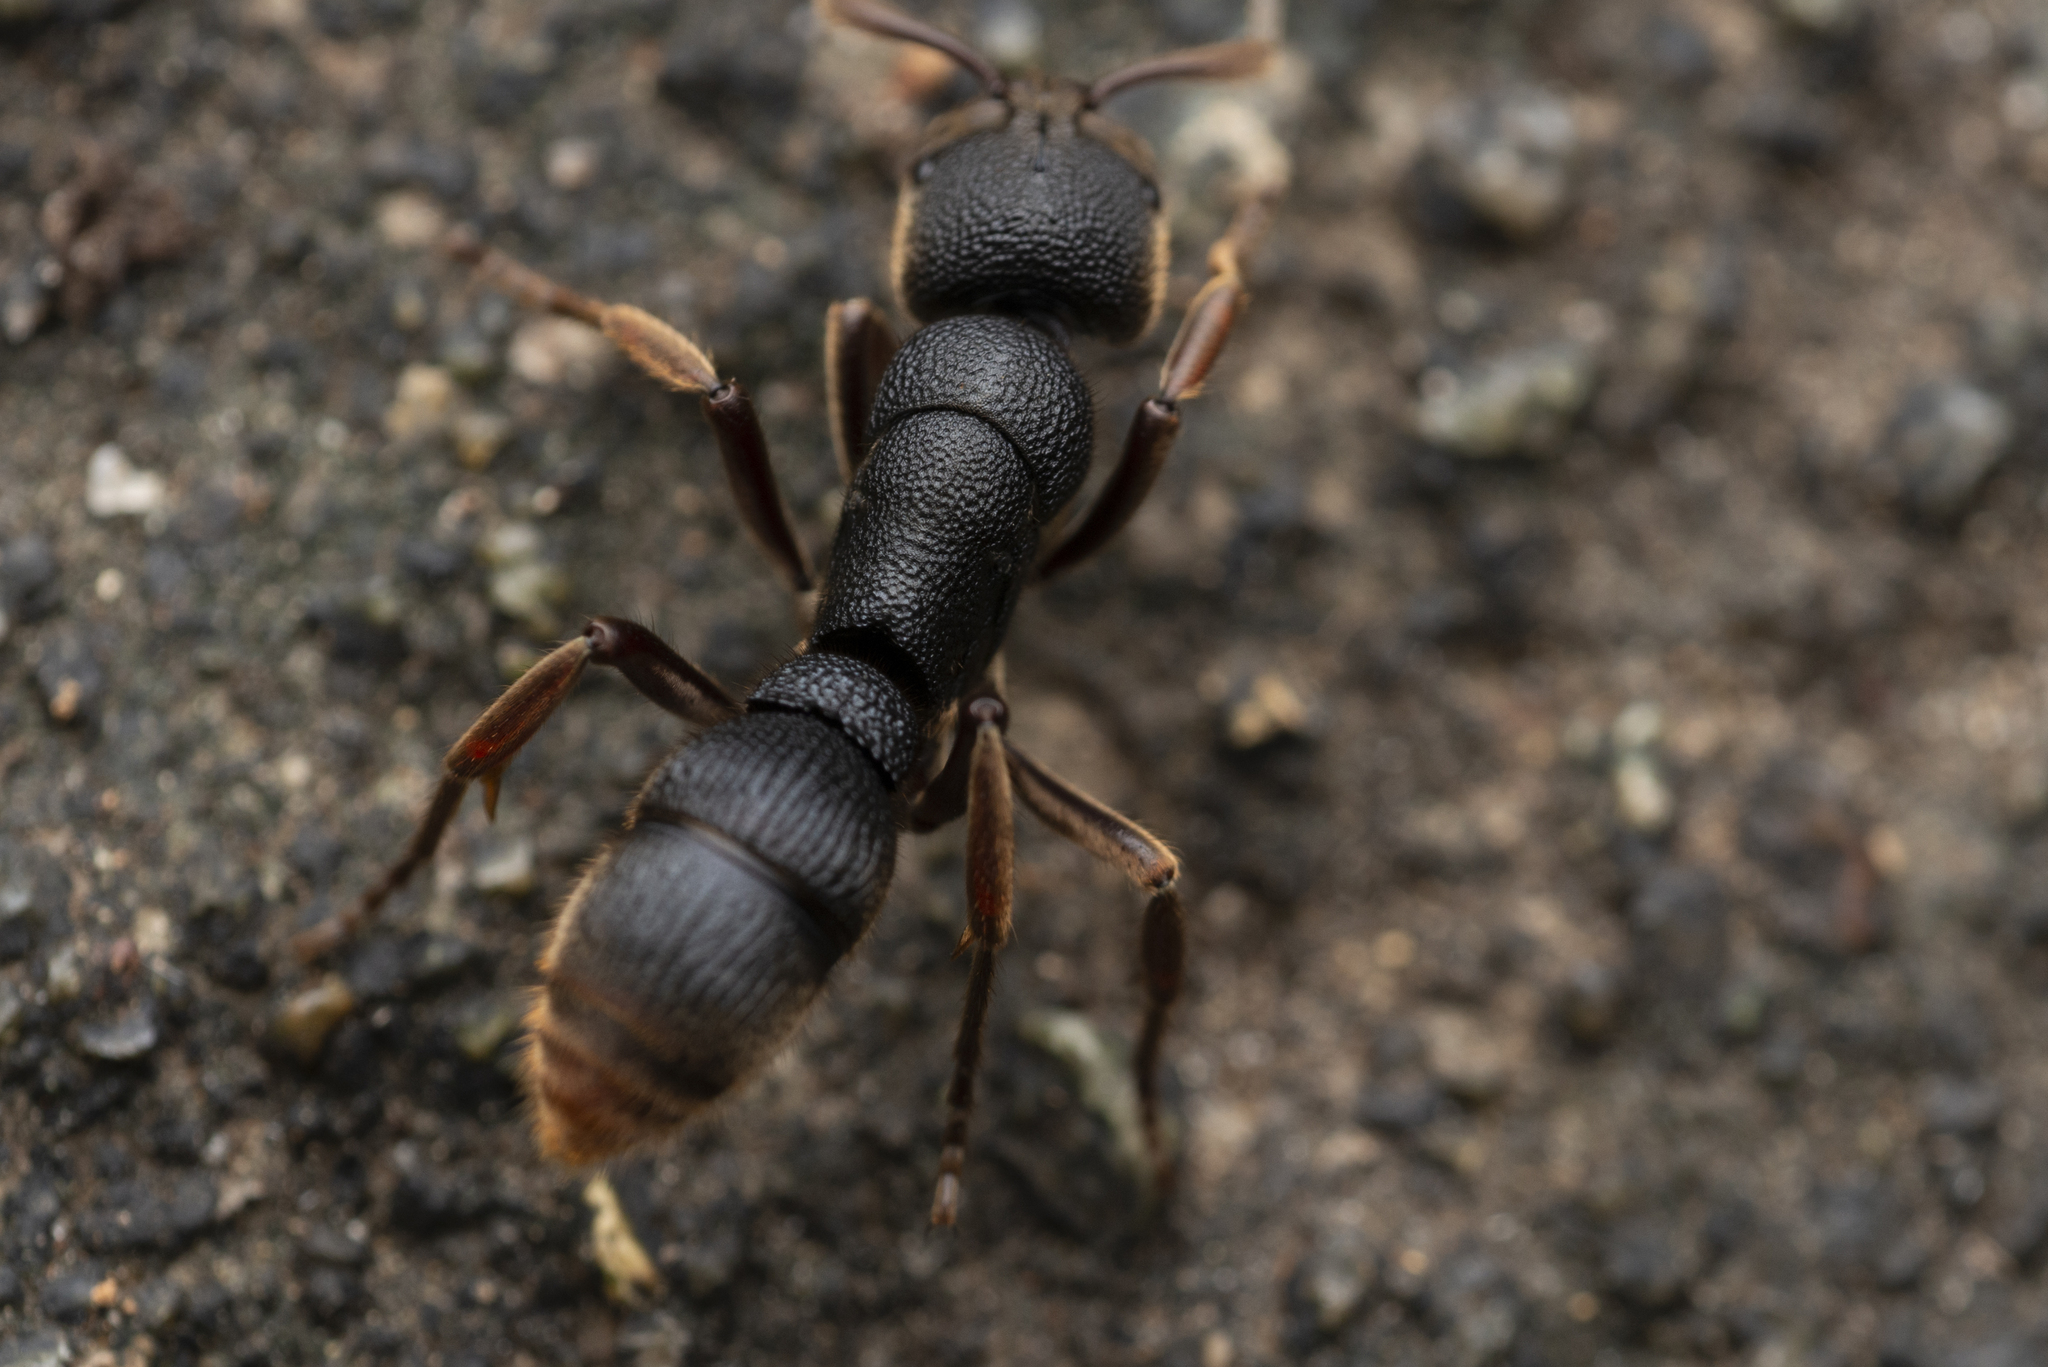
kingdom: Animalia
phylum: Arthropoda
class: Insecta
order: Hymenoptera
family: Formicidae
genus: Pseudoneoponera
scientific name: Pseudoneoponera rufipes
